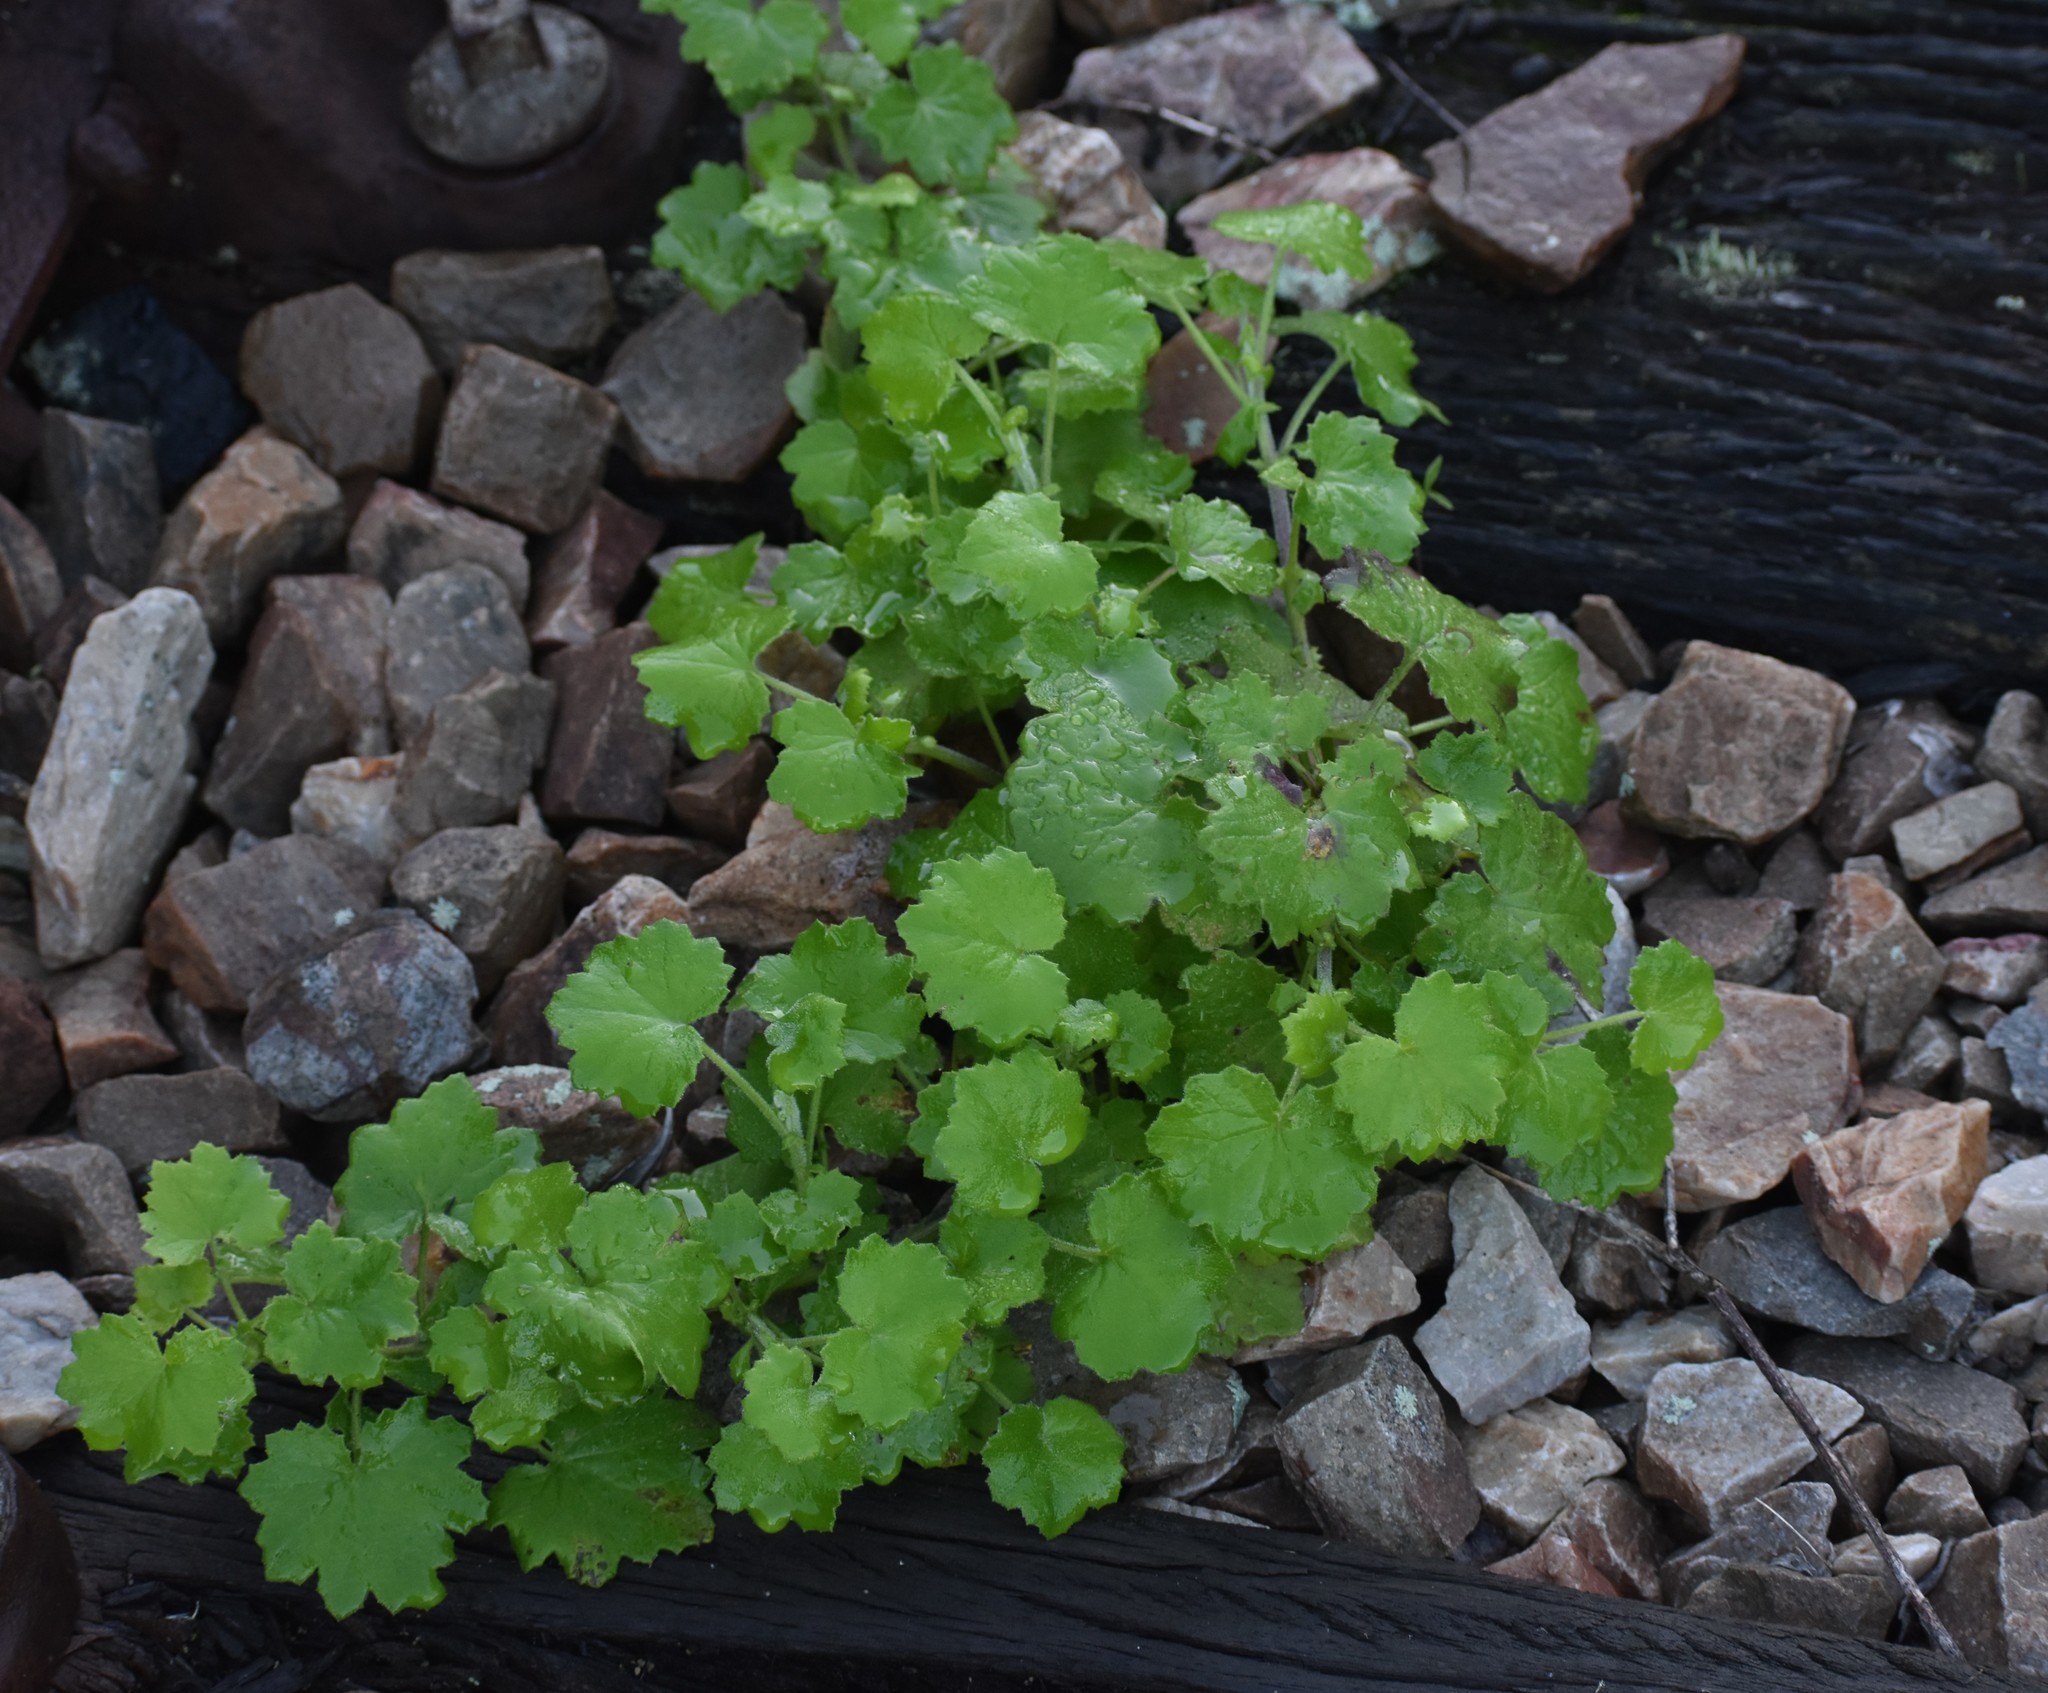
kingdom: Plantae
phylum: Tracheophyta
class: Magnoliopsida
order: Asterales
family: Asteraceae
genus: Cineraria
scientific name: Cineraria geifolia
